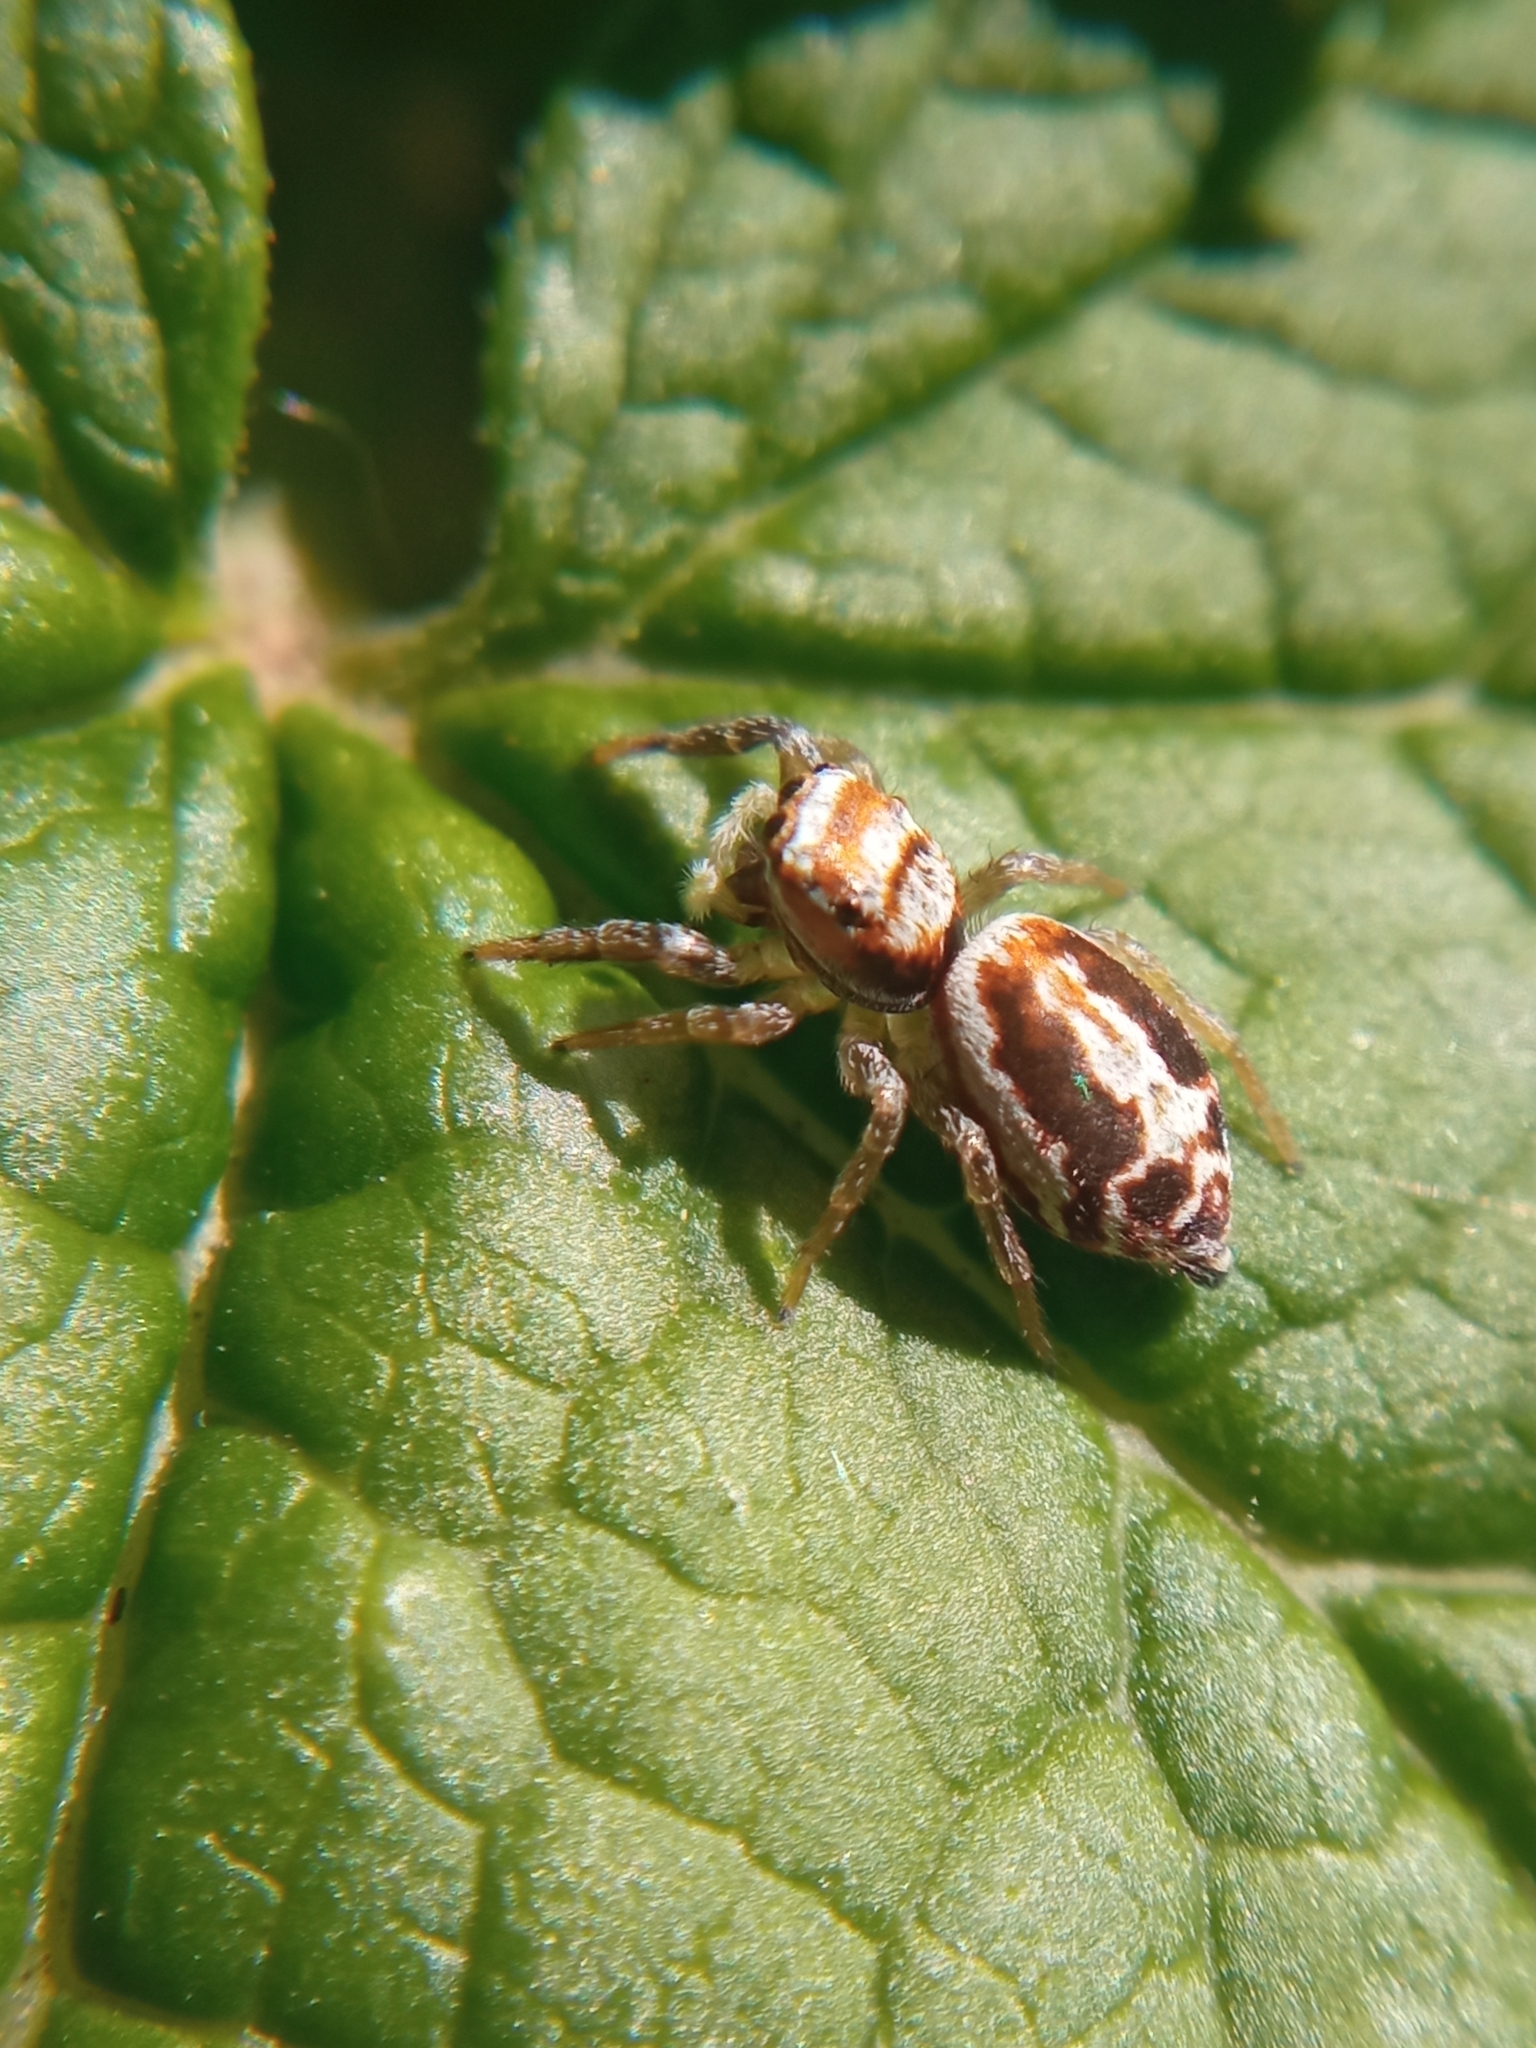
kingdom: Animalia
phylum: Arthropoda
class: Arachnida
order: Araneae
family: Salticidae
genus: Icius
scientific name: Icius
